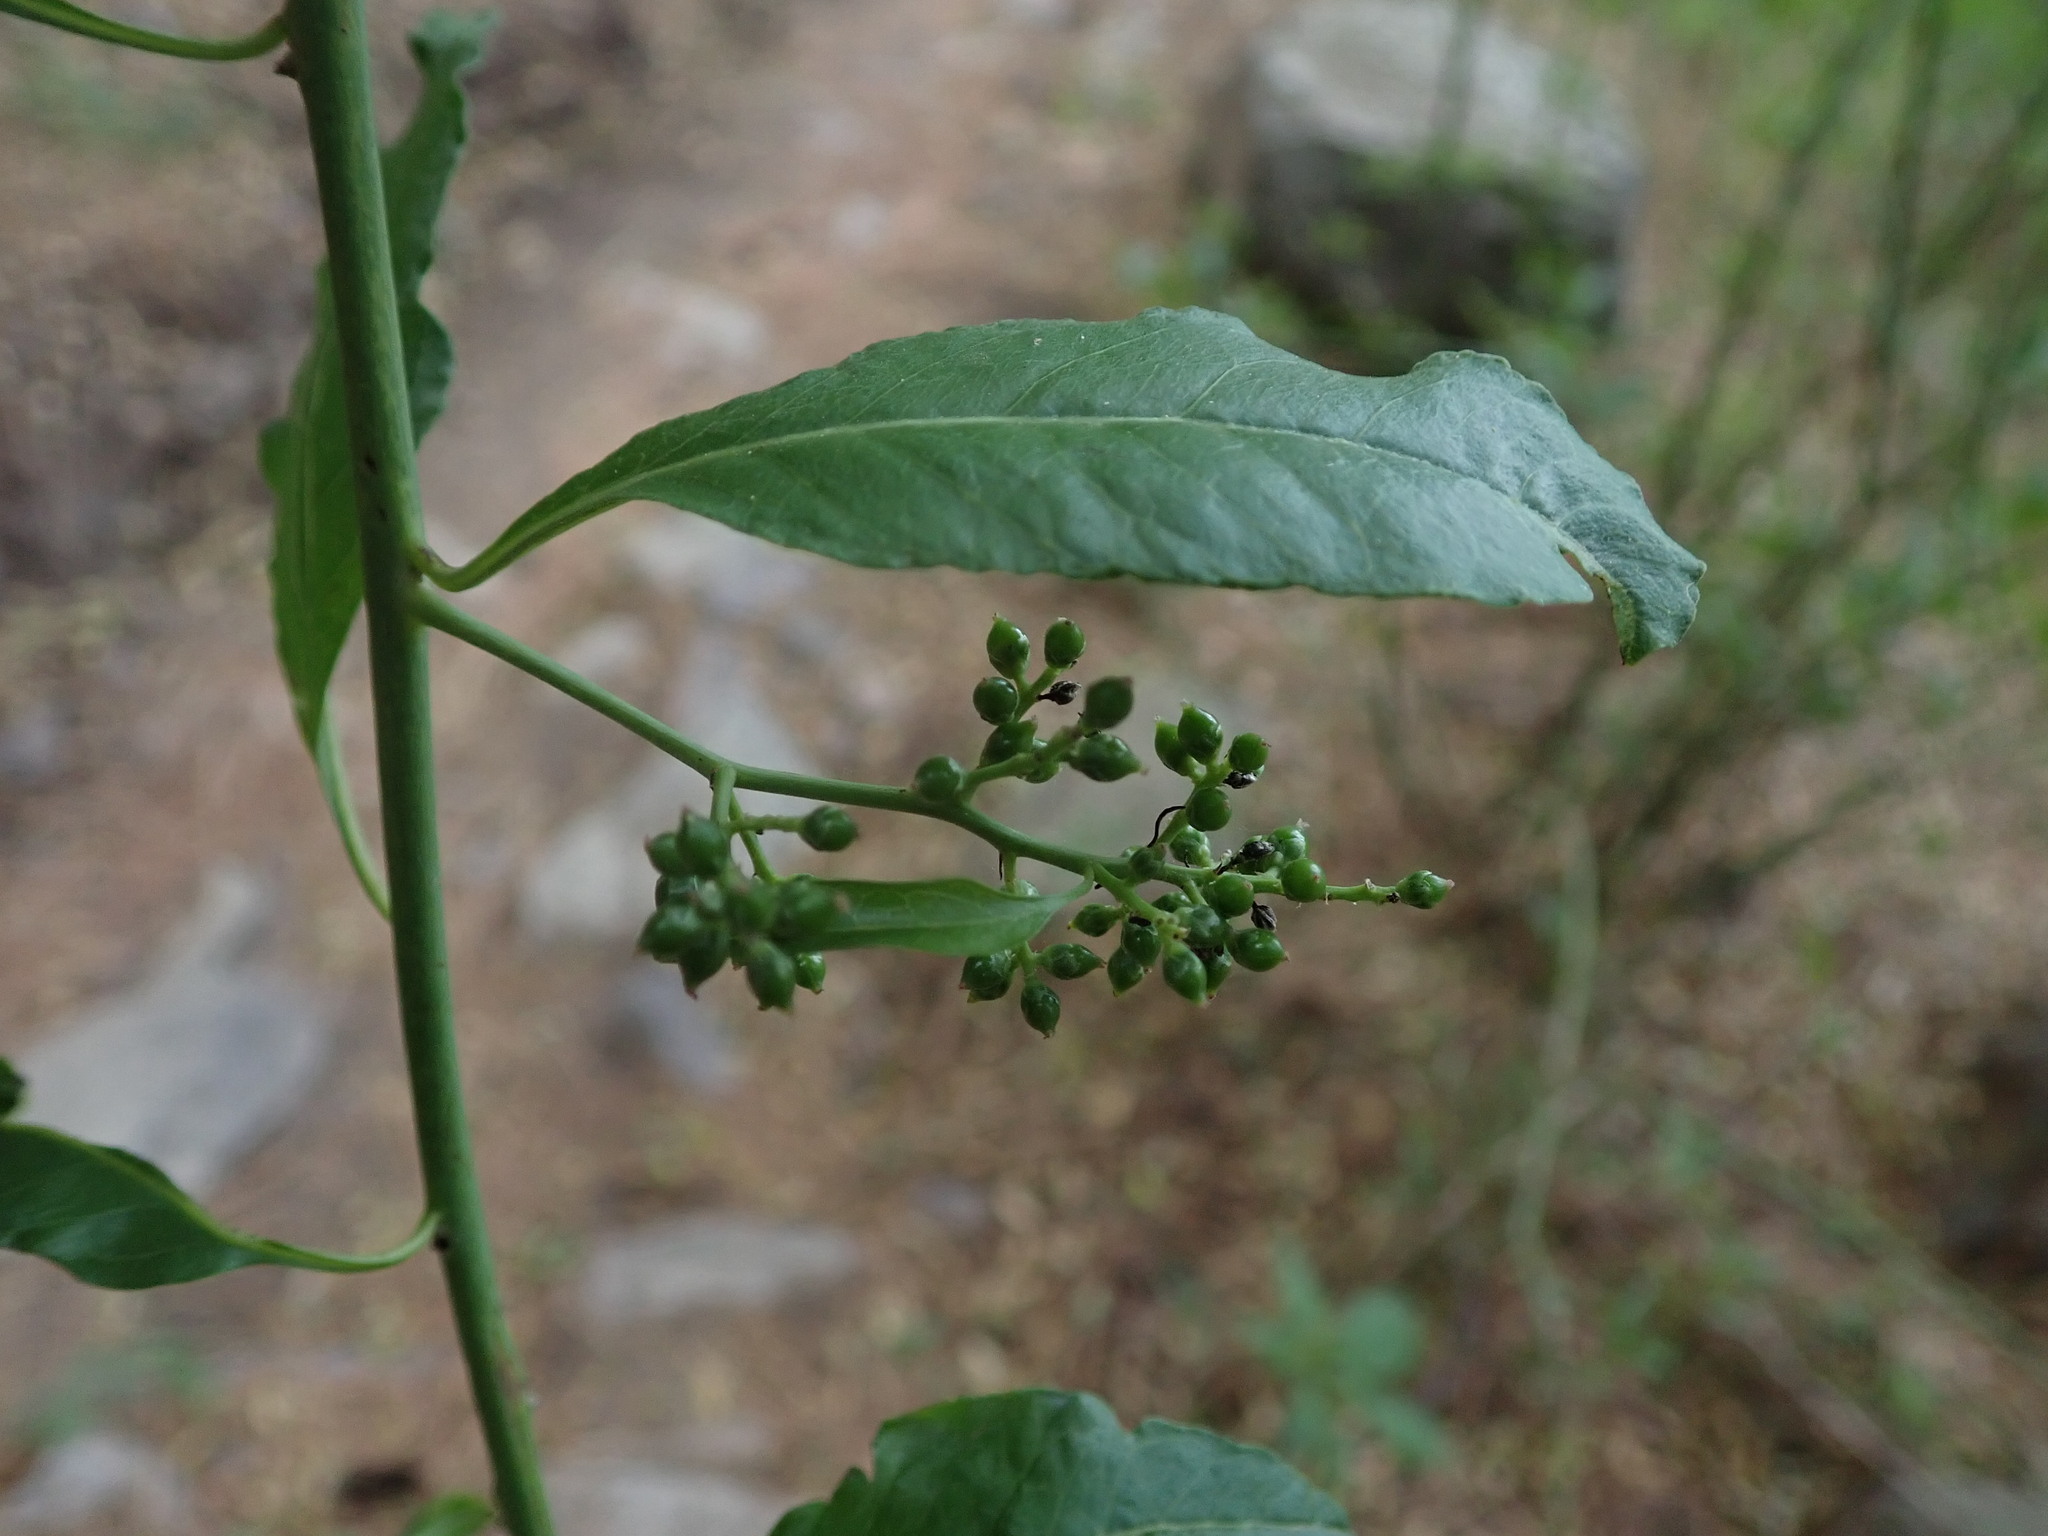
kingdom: Plantae
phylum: Tracheophyta
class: Magnoliopsida
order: Caryophyllales
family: Amaranthaceae
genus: Bosea
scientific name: Bosea yervamora
